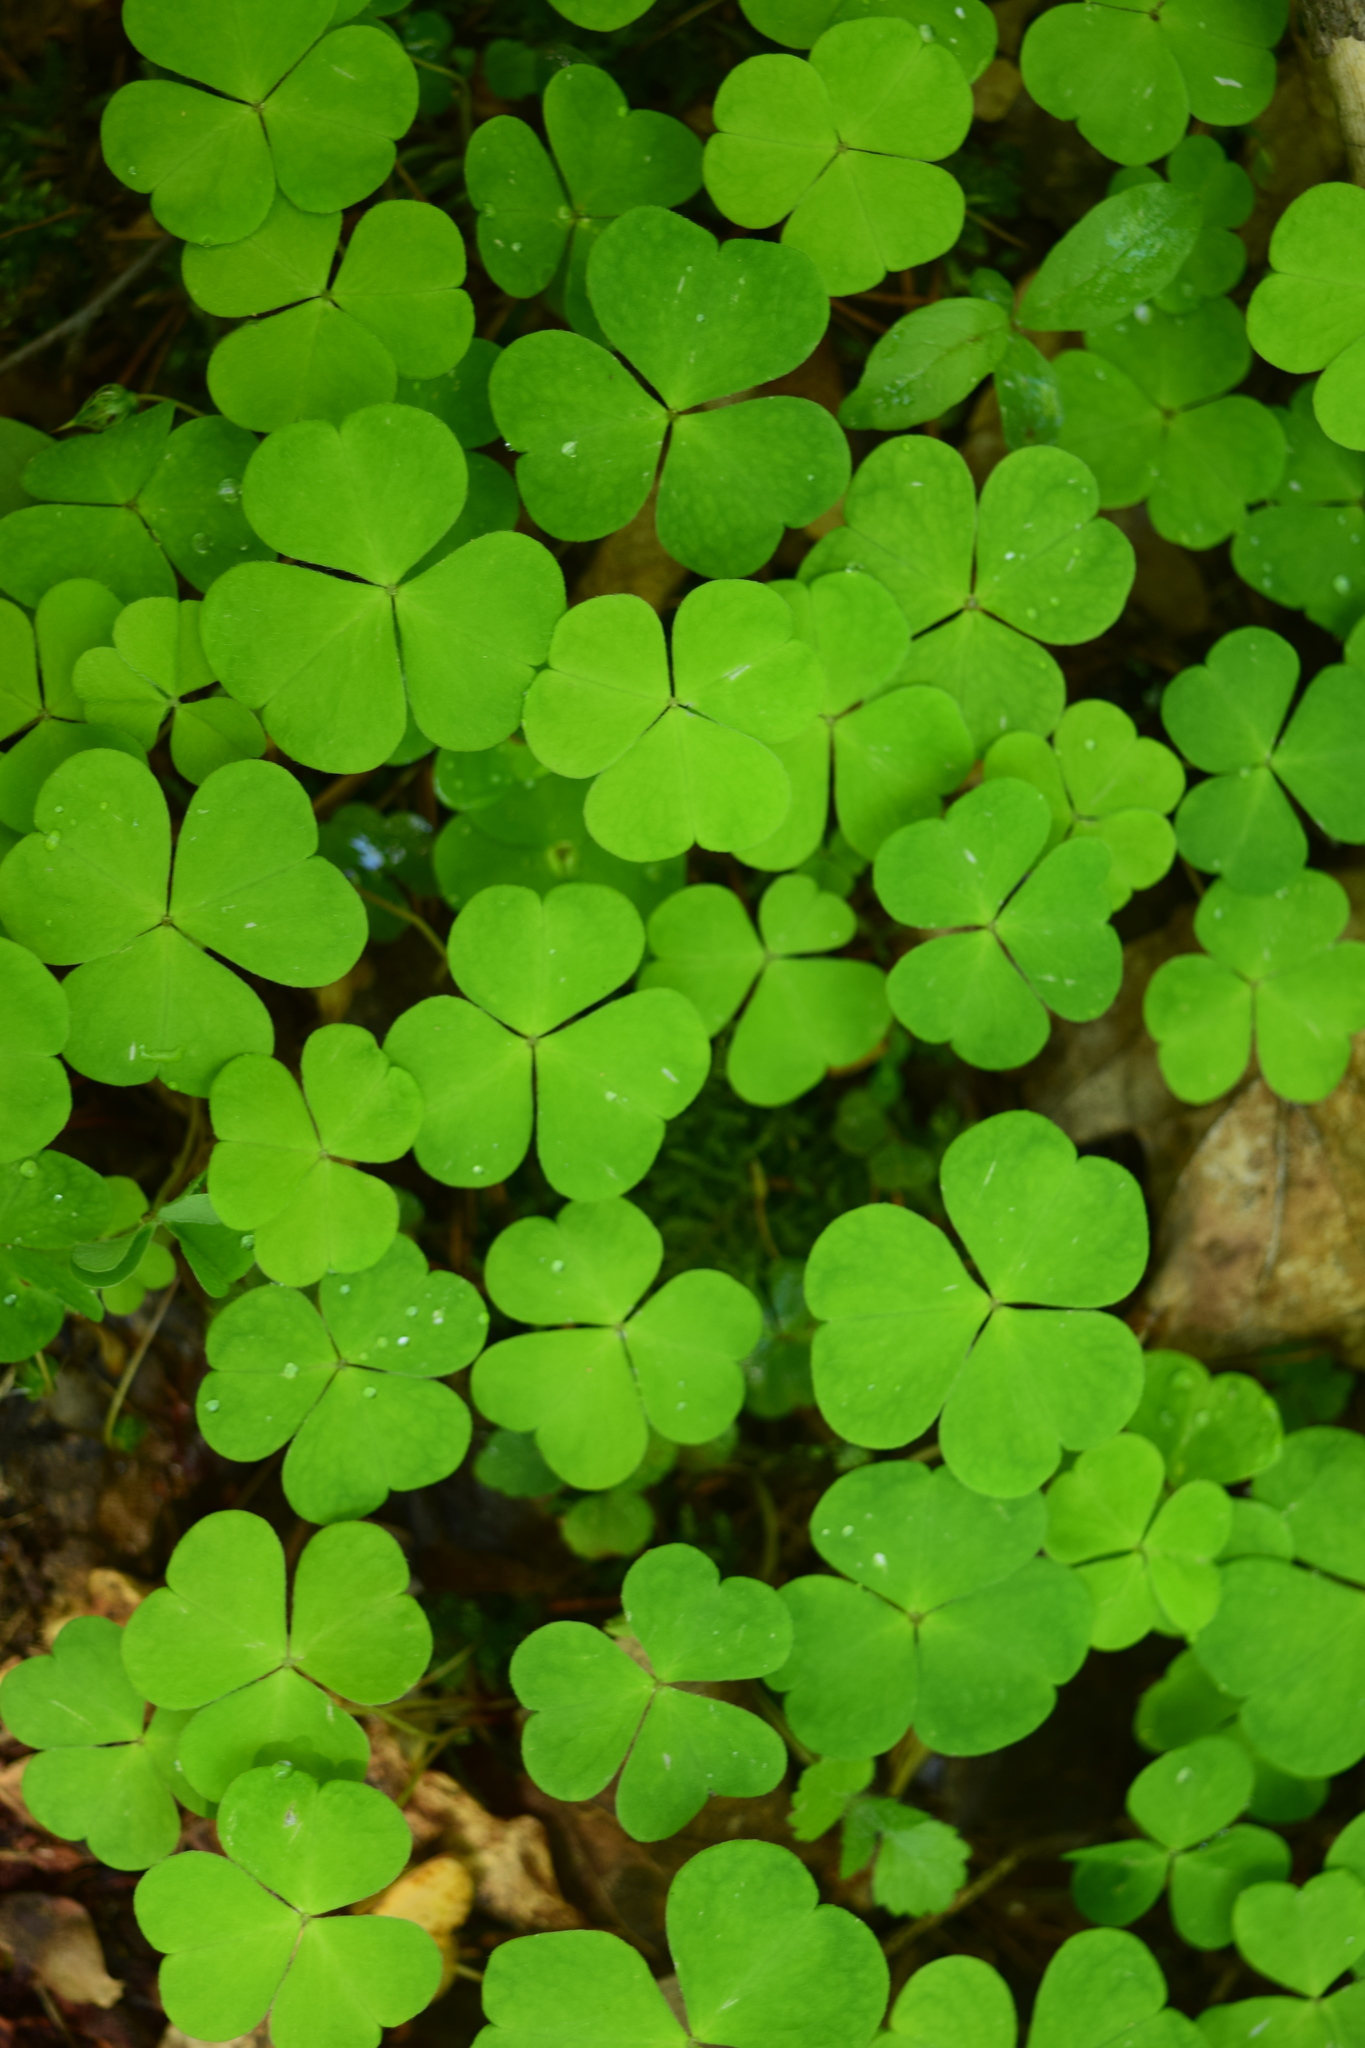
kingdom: Plantae
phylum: Tracheophyta
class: Magnoliopsida
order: Oxalidales
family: Oxalidaceae
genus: Oxalis
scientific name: Oxalis acetosella
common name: Wood-sorrel
